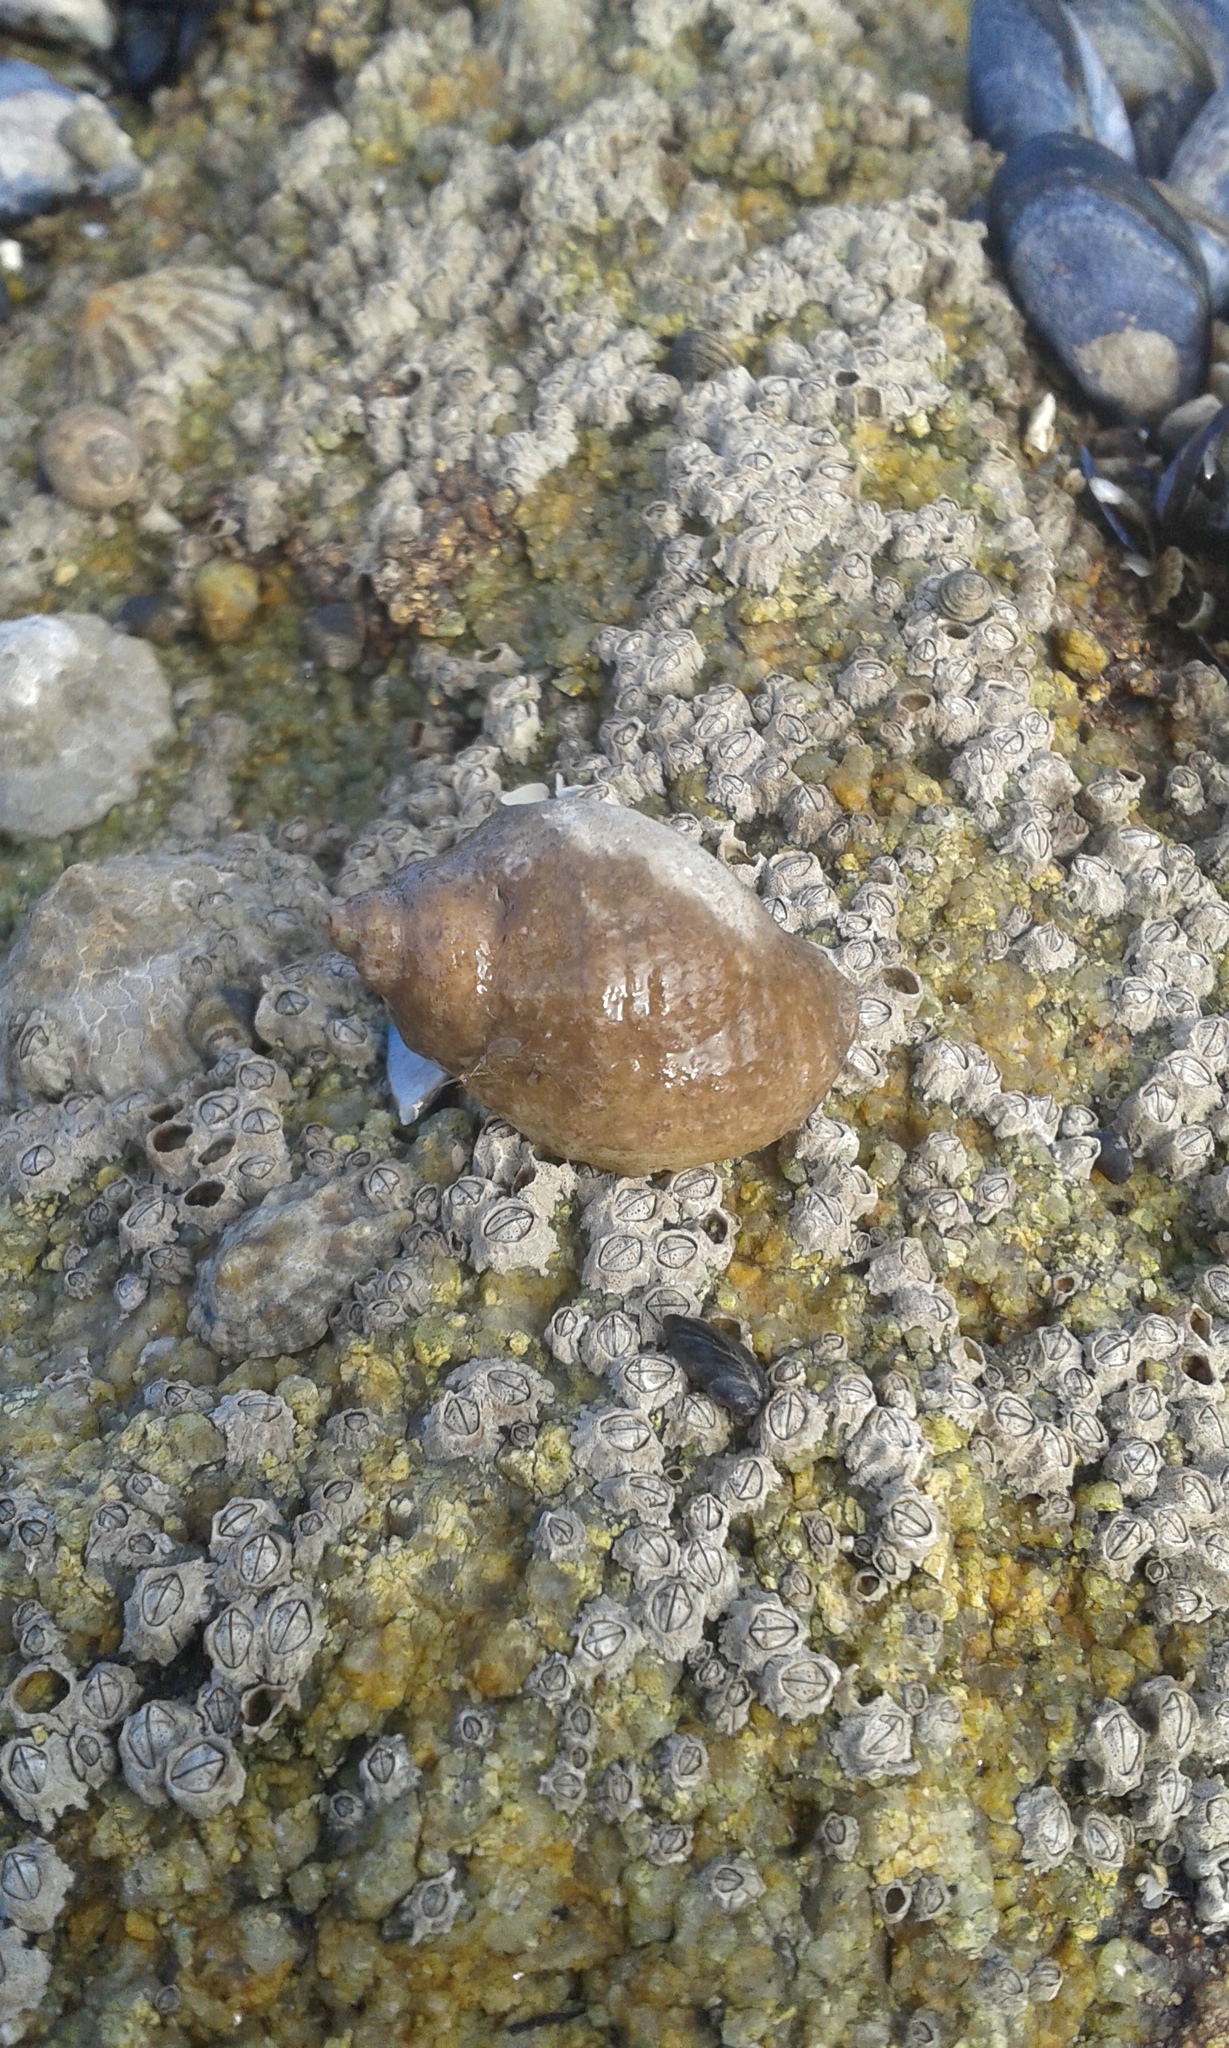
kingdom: Animalia
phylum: Mollusca
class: Gastropoda
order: Neogastropoda
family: Muricidae
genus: Nucella
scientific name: Nucella lapillus
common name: Dog whelk
